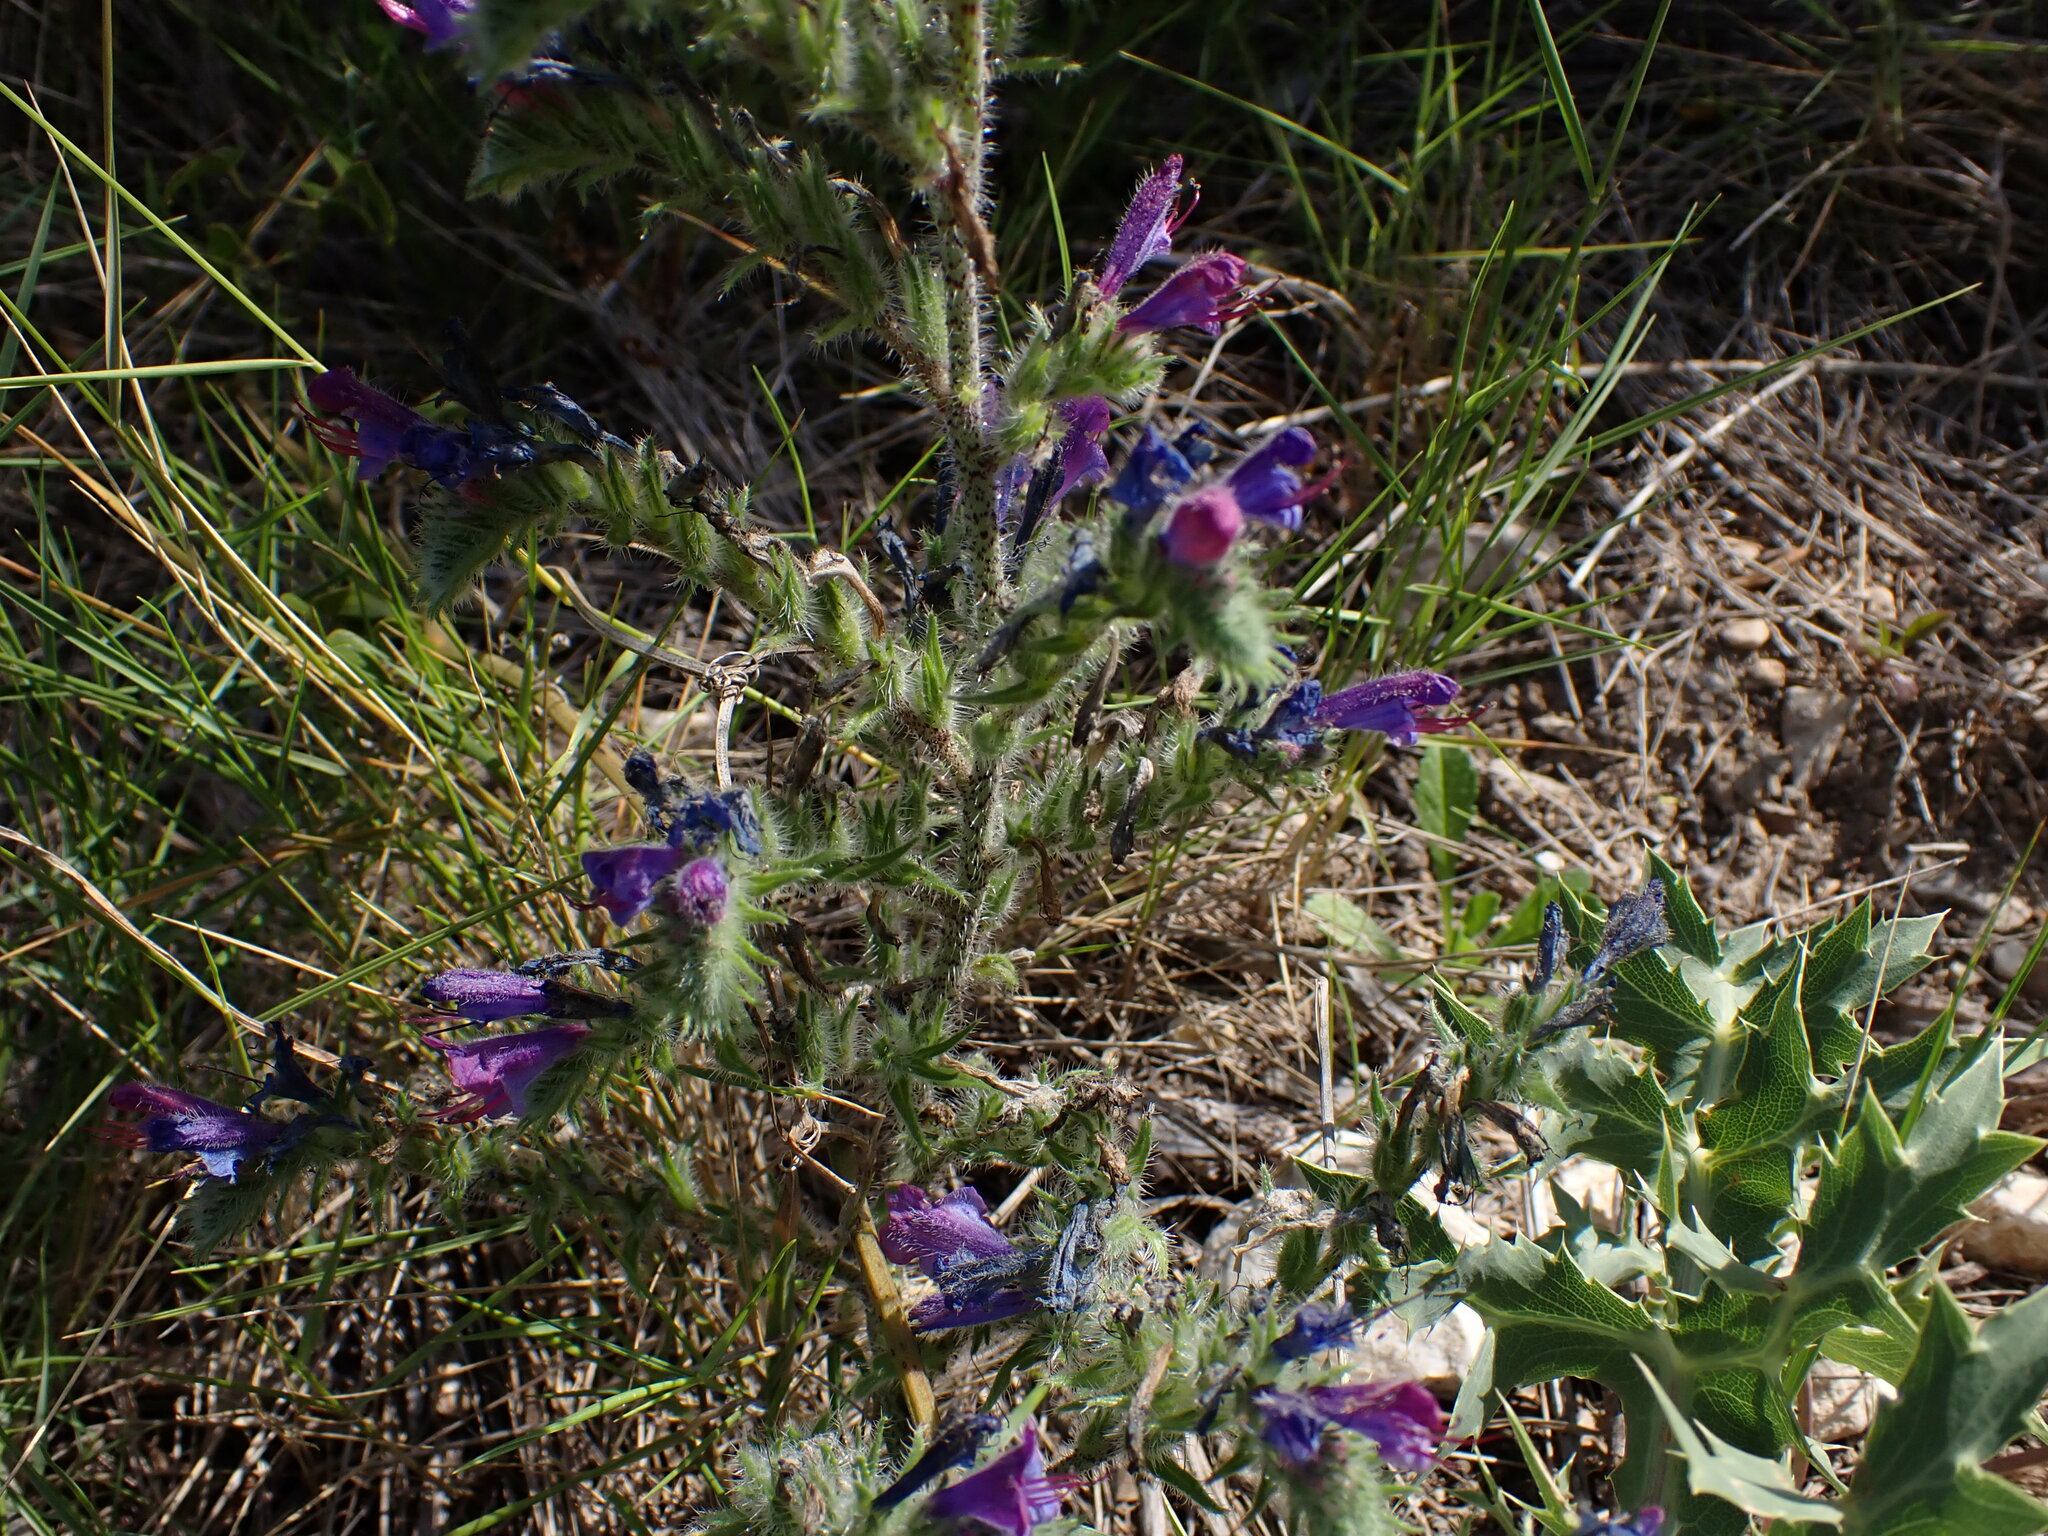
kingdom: Plantae
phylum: Tracheophyta
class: Magnoliopsida
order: Boraginales
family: Boraginaceae
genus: Echium
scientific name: Echium vulgare
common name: Common viper's bugloss
